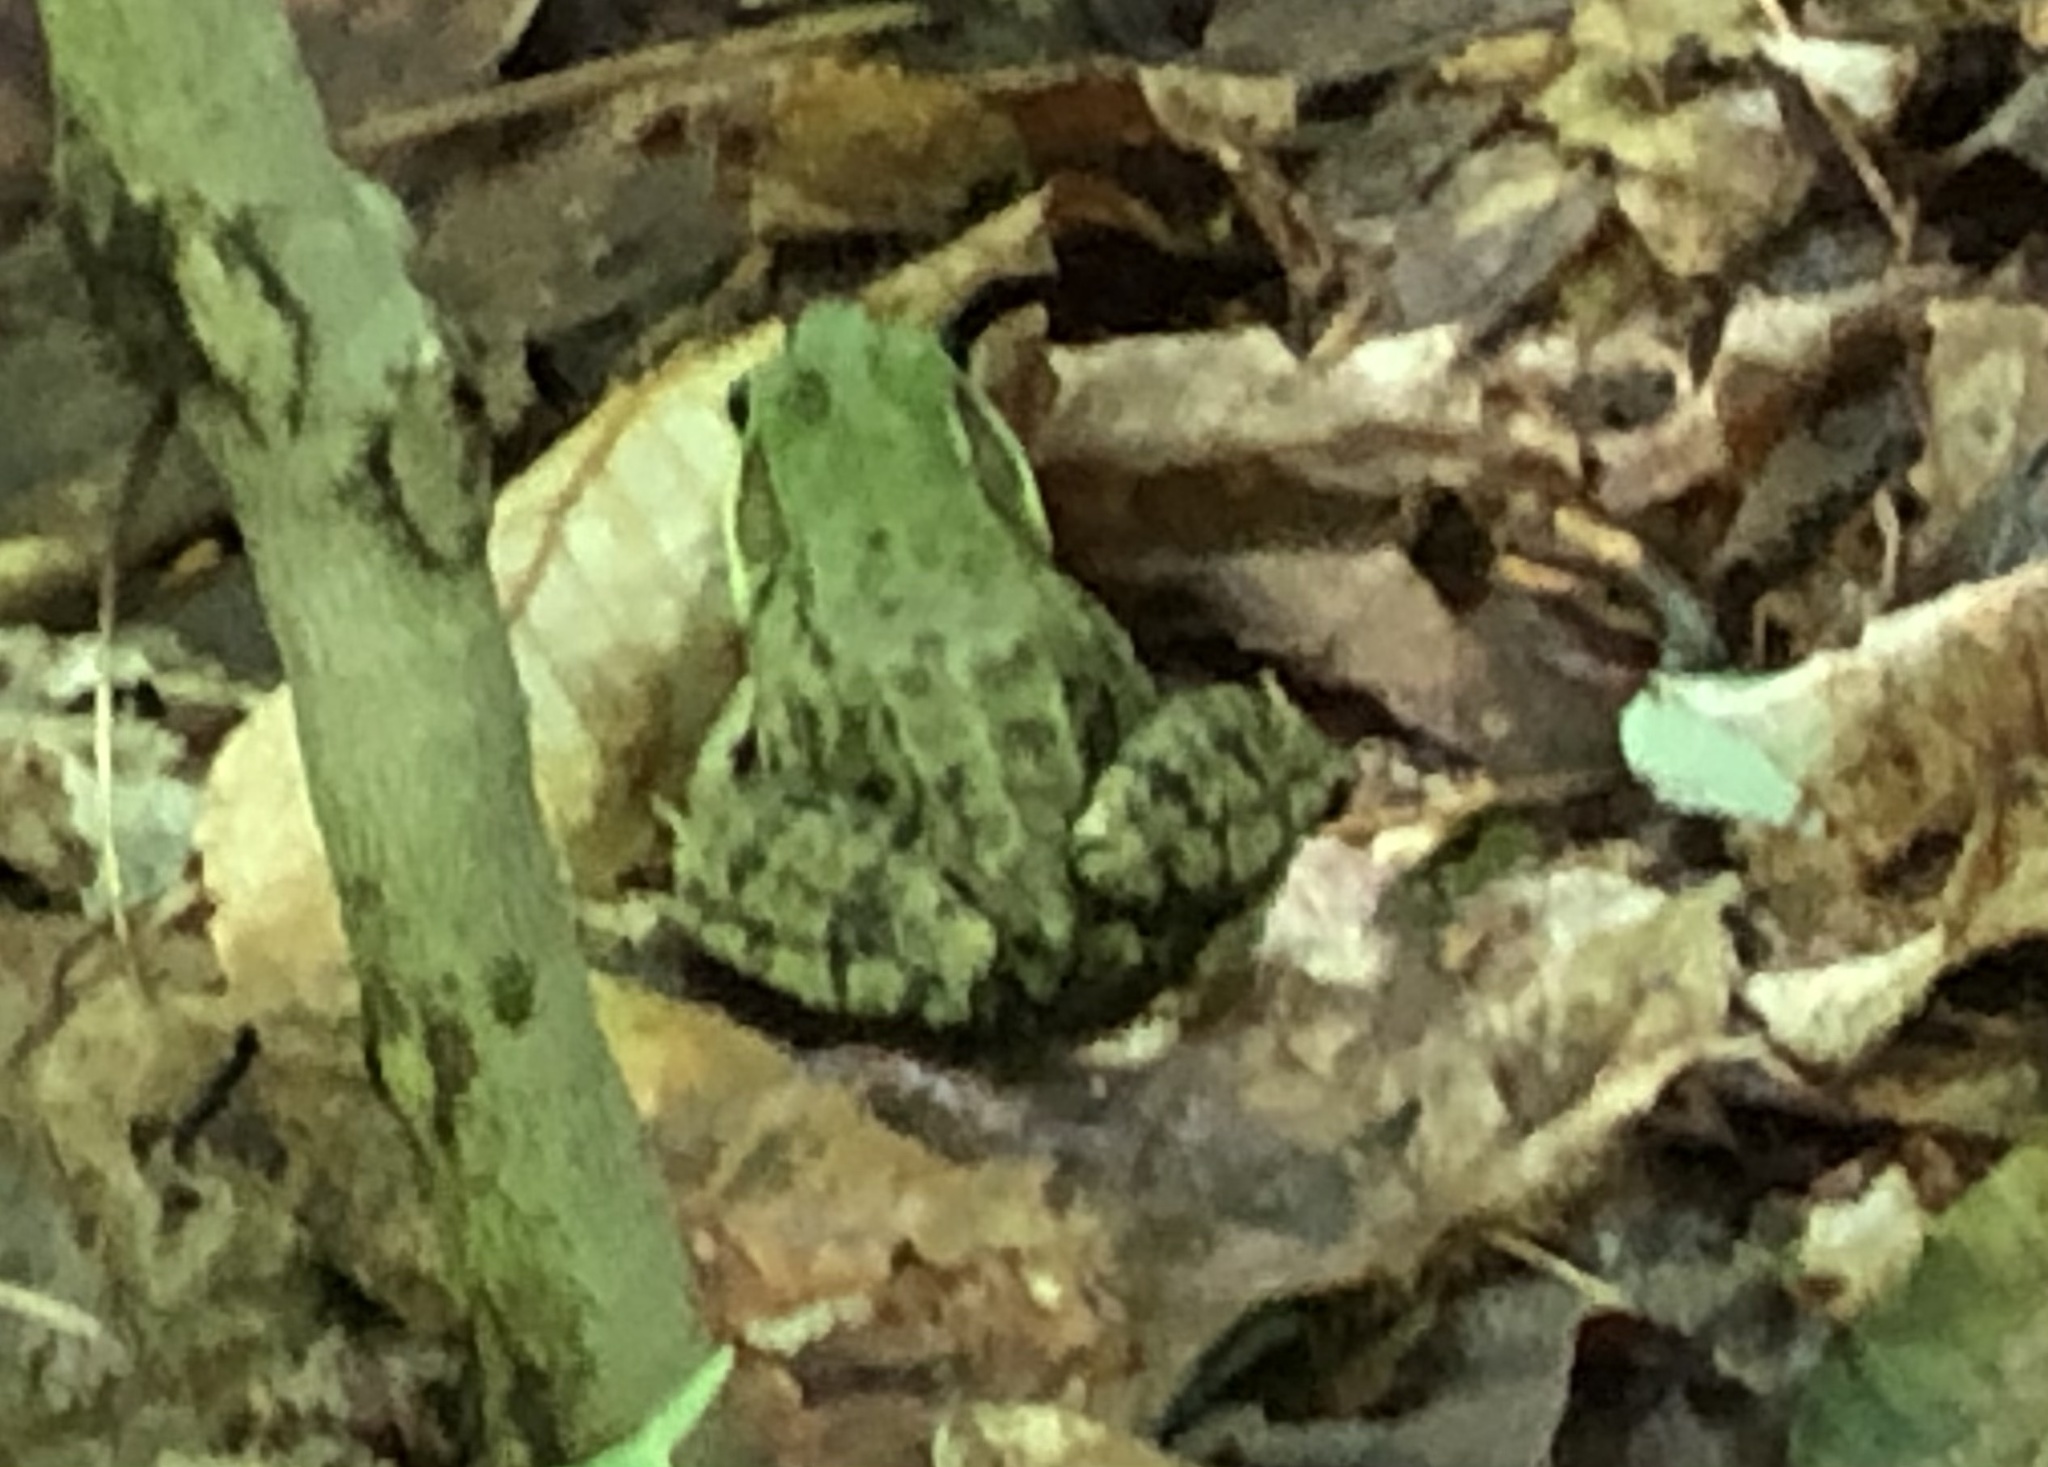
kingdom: Animalia
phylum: Chordata
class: Amphibia
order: Anura
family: Ranidae
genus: Lithobates
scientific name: Lithobates clamitans
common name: Green frog
